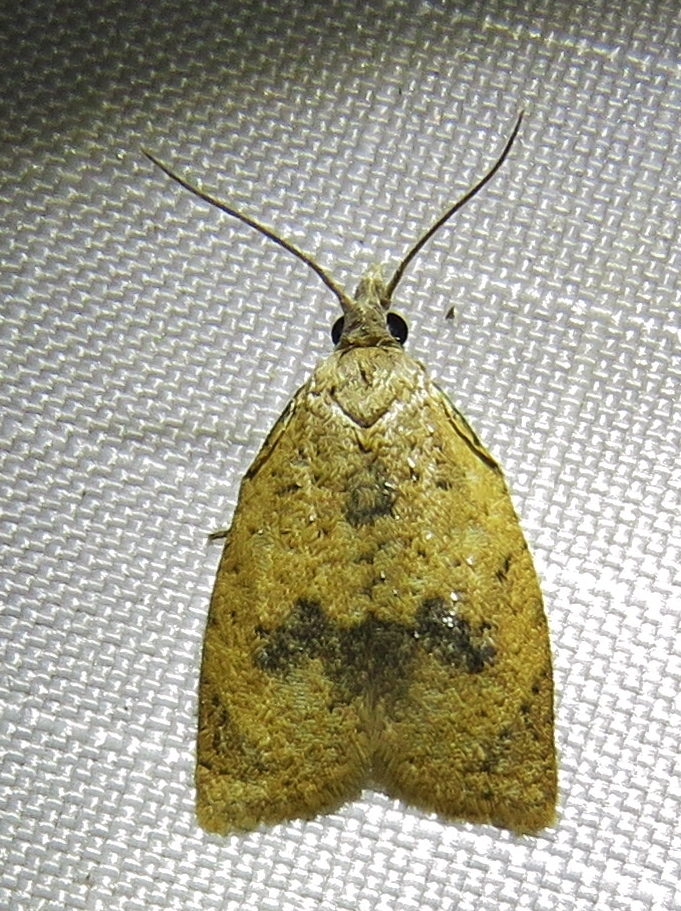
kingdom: Animalia
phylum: Arthropoda
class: Insecta
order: Lepidoptera
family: Tortricidae
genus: Sparganothoides
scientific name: Sparganothoides lentiginosana
